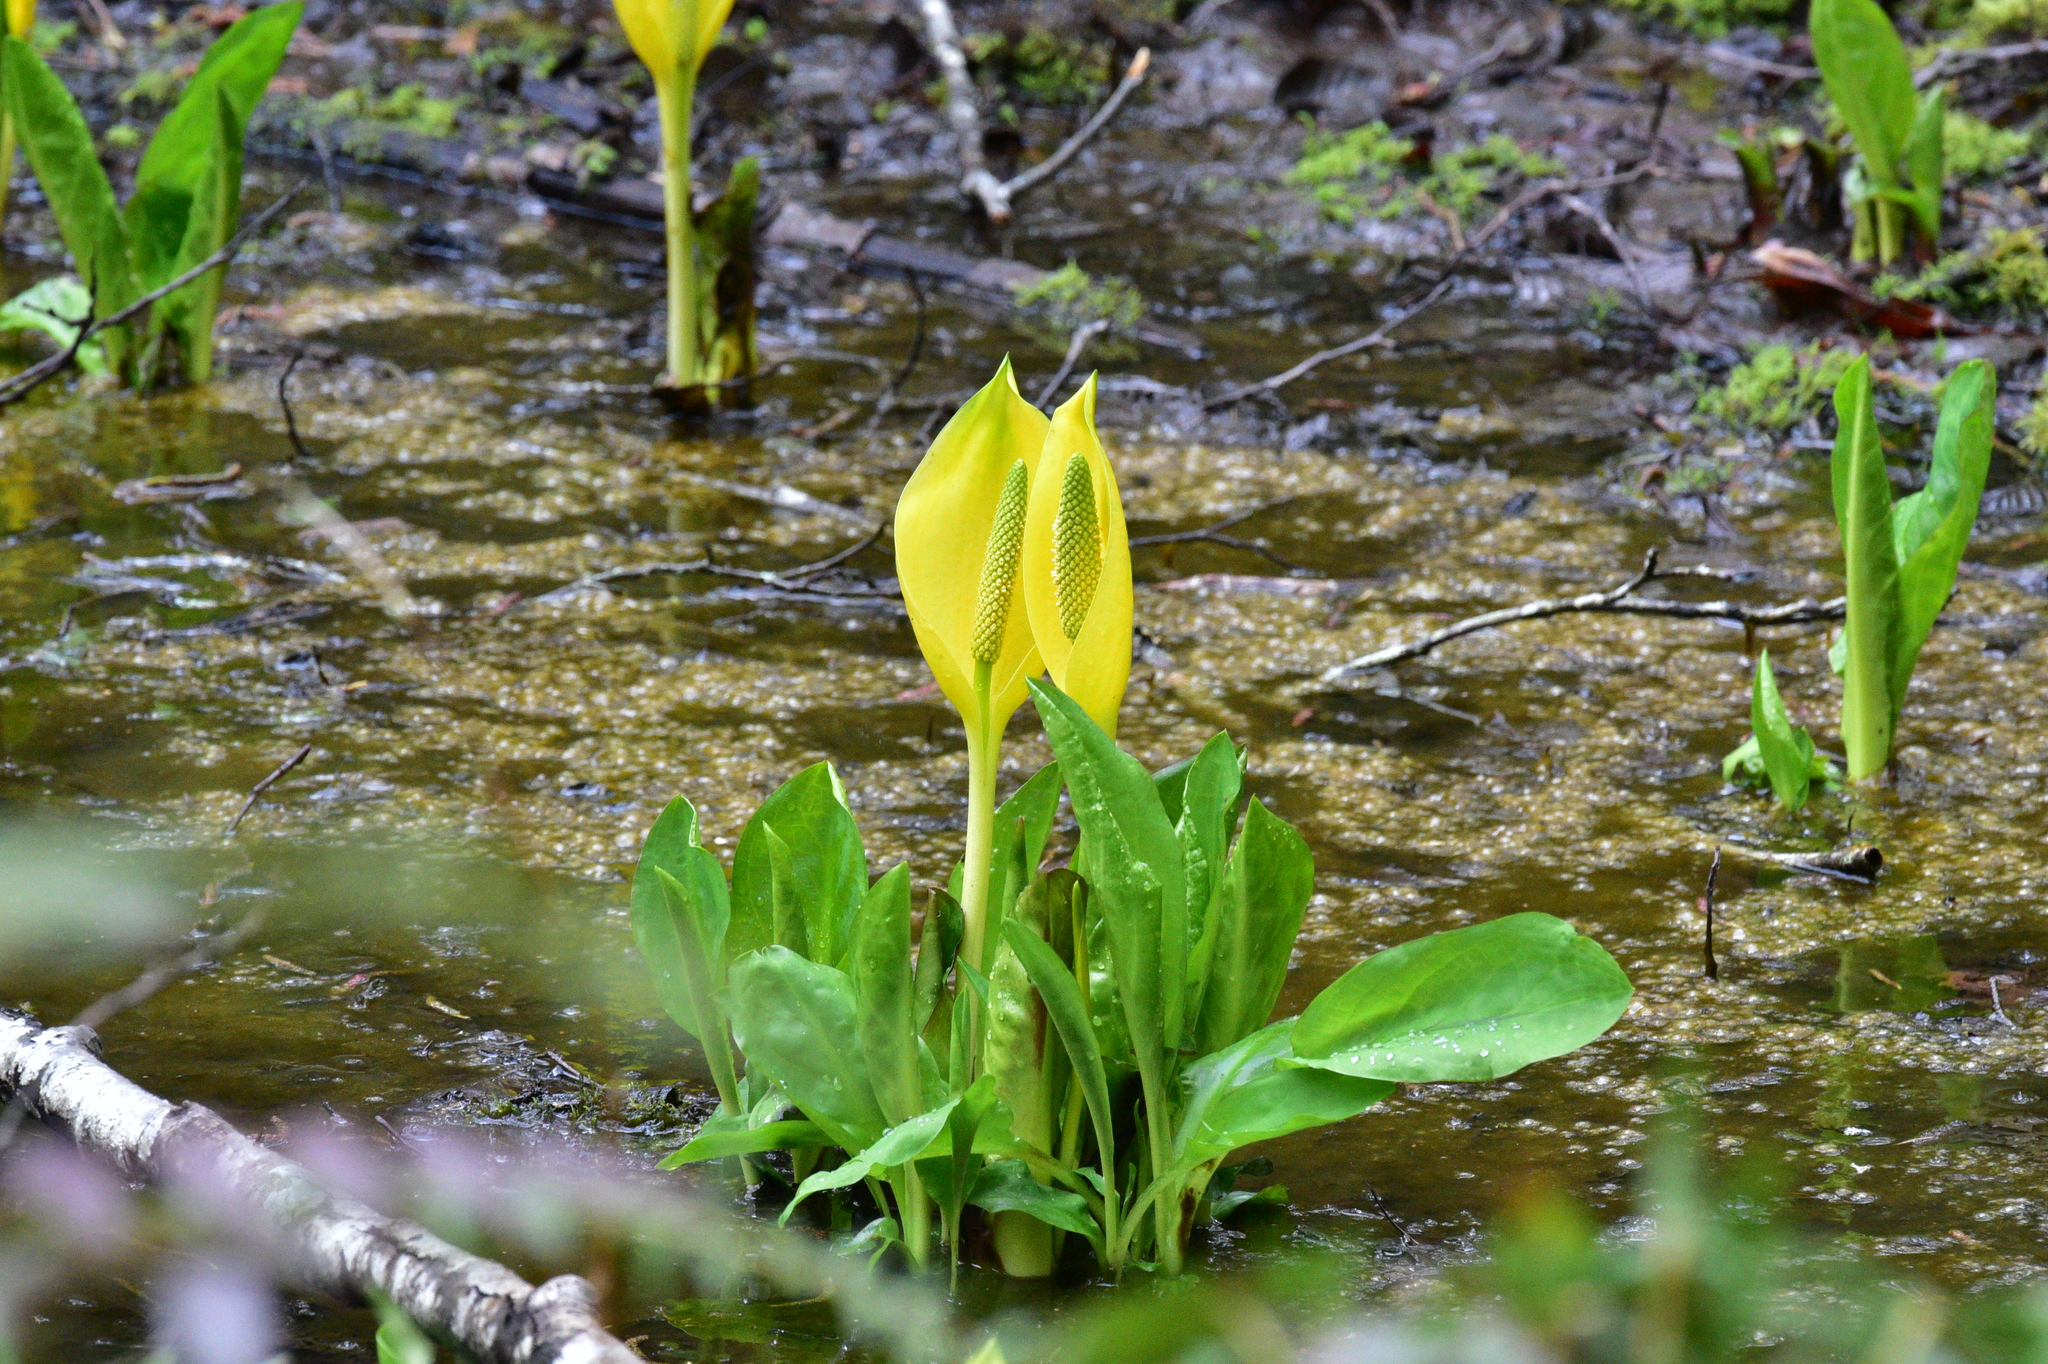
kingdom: Plantae
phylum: Tracheophyta
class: Liliopsida
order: Alismatales
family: Araceae
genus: Lysichiton
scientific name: Lysichiton americanus
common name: American skunk cabbage
